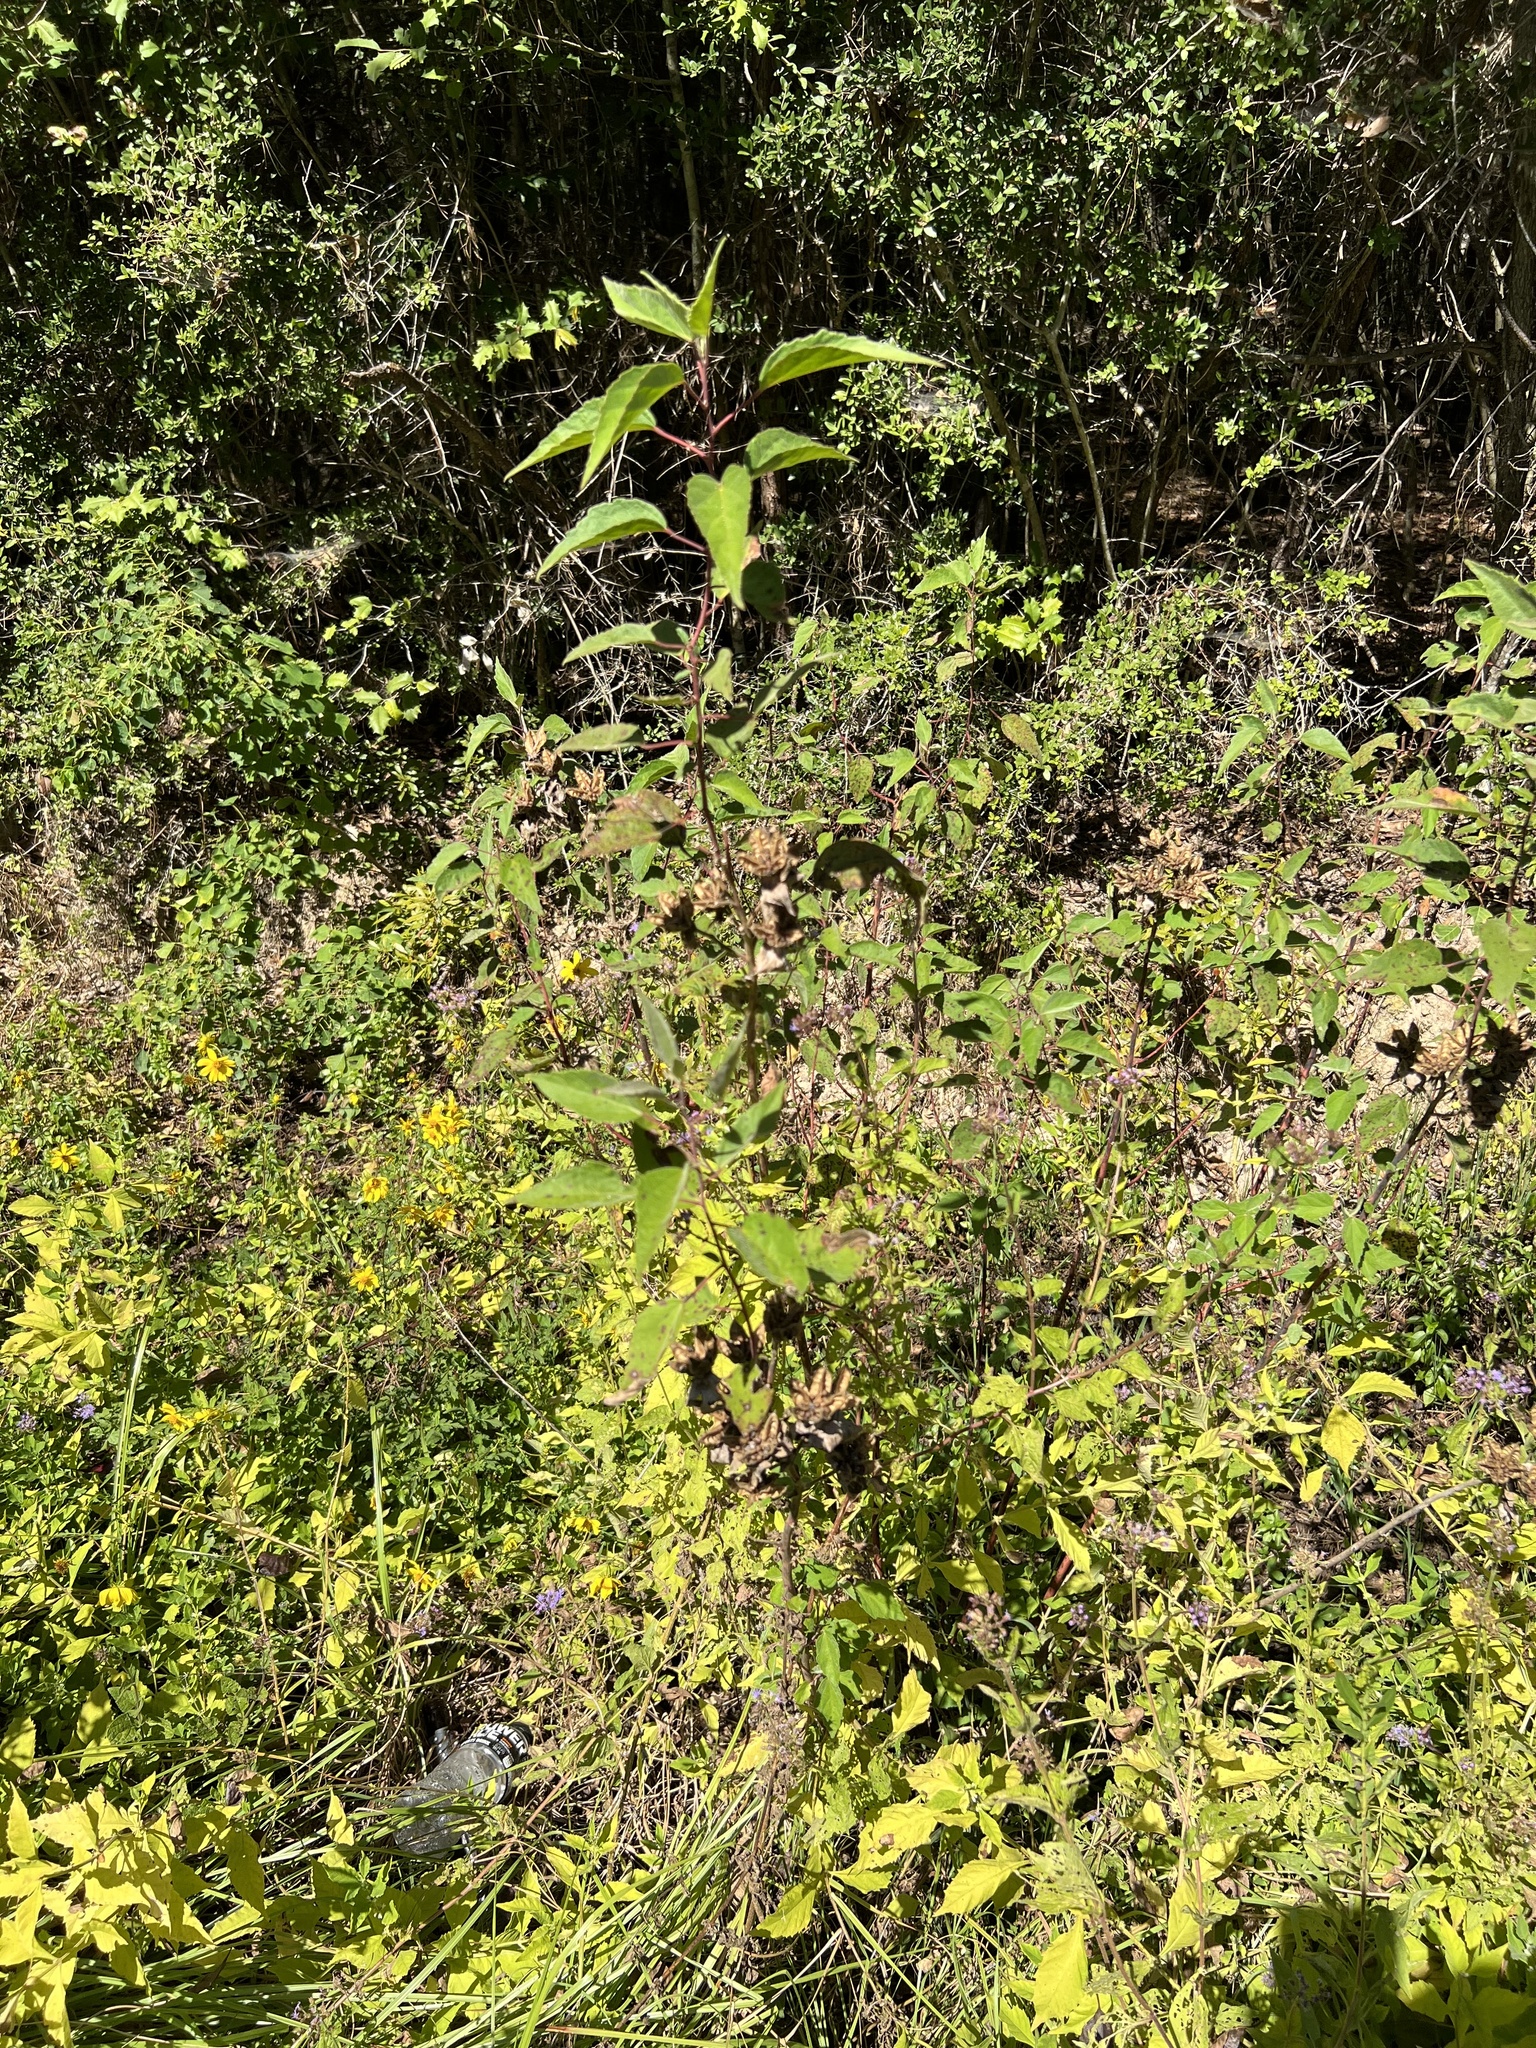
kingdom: Plantae
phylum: Tracheophyta
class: Magnoliopsida
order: Malvales
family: Malvaceae
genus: Hibiscus
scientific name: Hibiscus moscheutos
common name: Common rose-mallow
